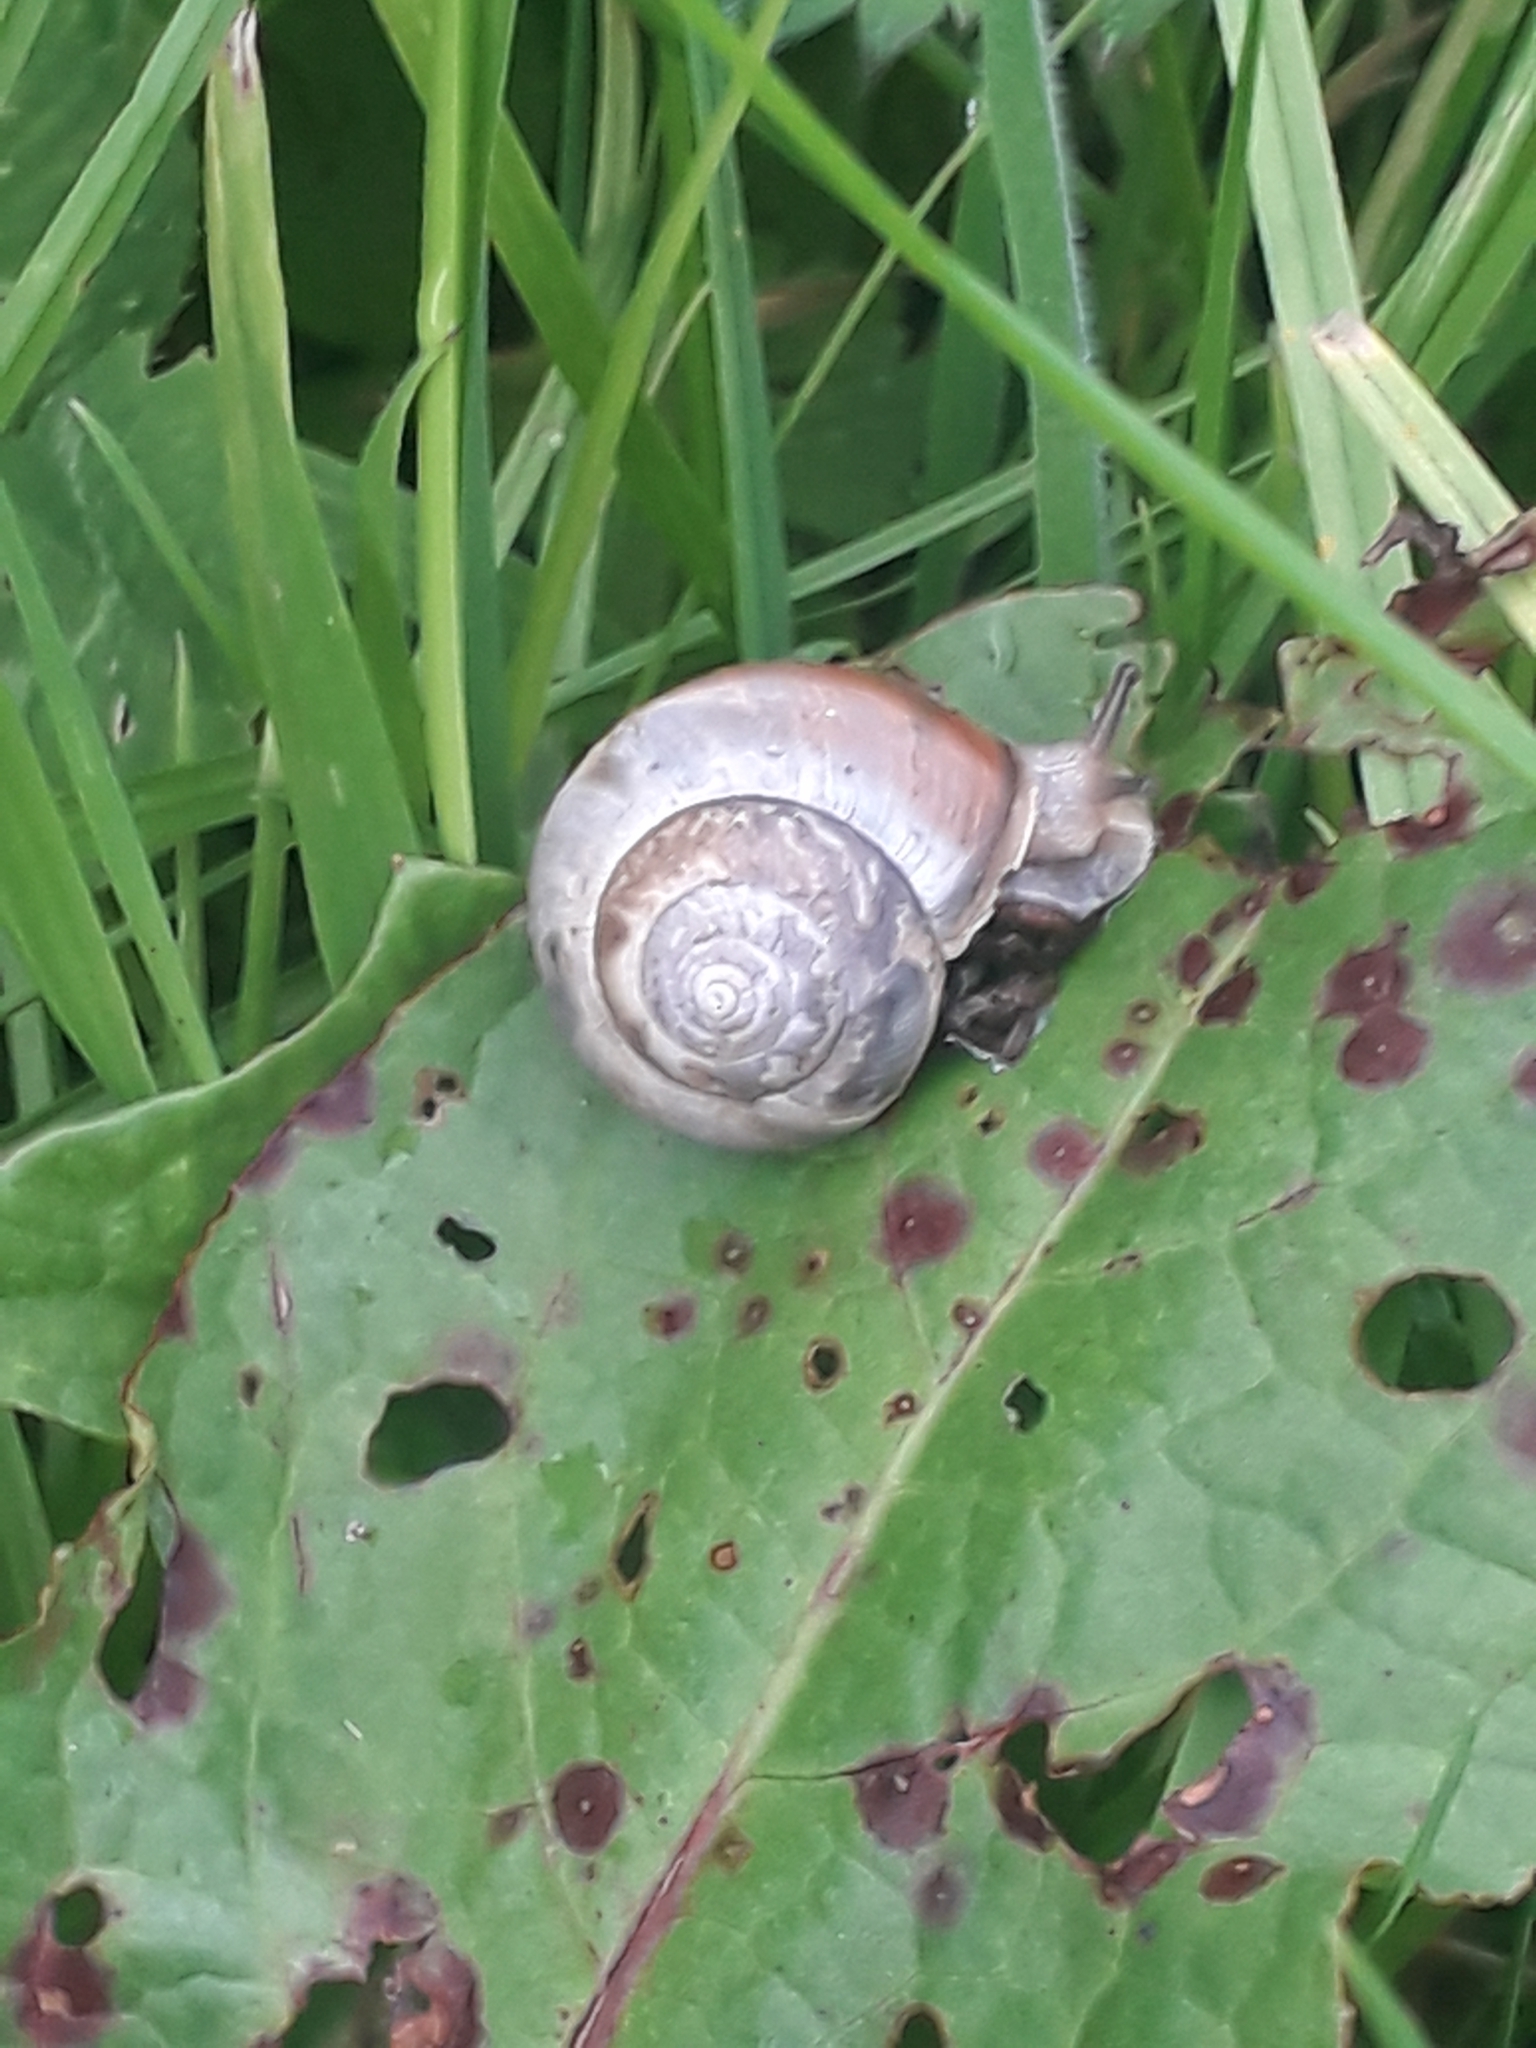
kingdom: Animalia
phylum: Mollusca
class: Gastropoda
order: Stylommatophora
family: Hygromiidae
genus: Monacha
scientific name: Monacha cantiana
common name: Kentish snail
